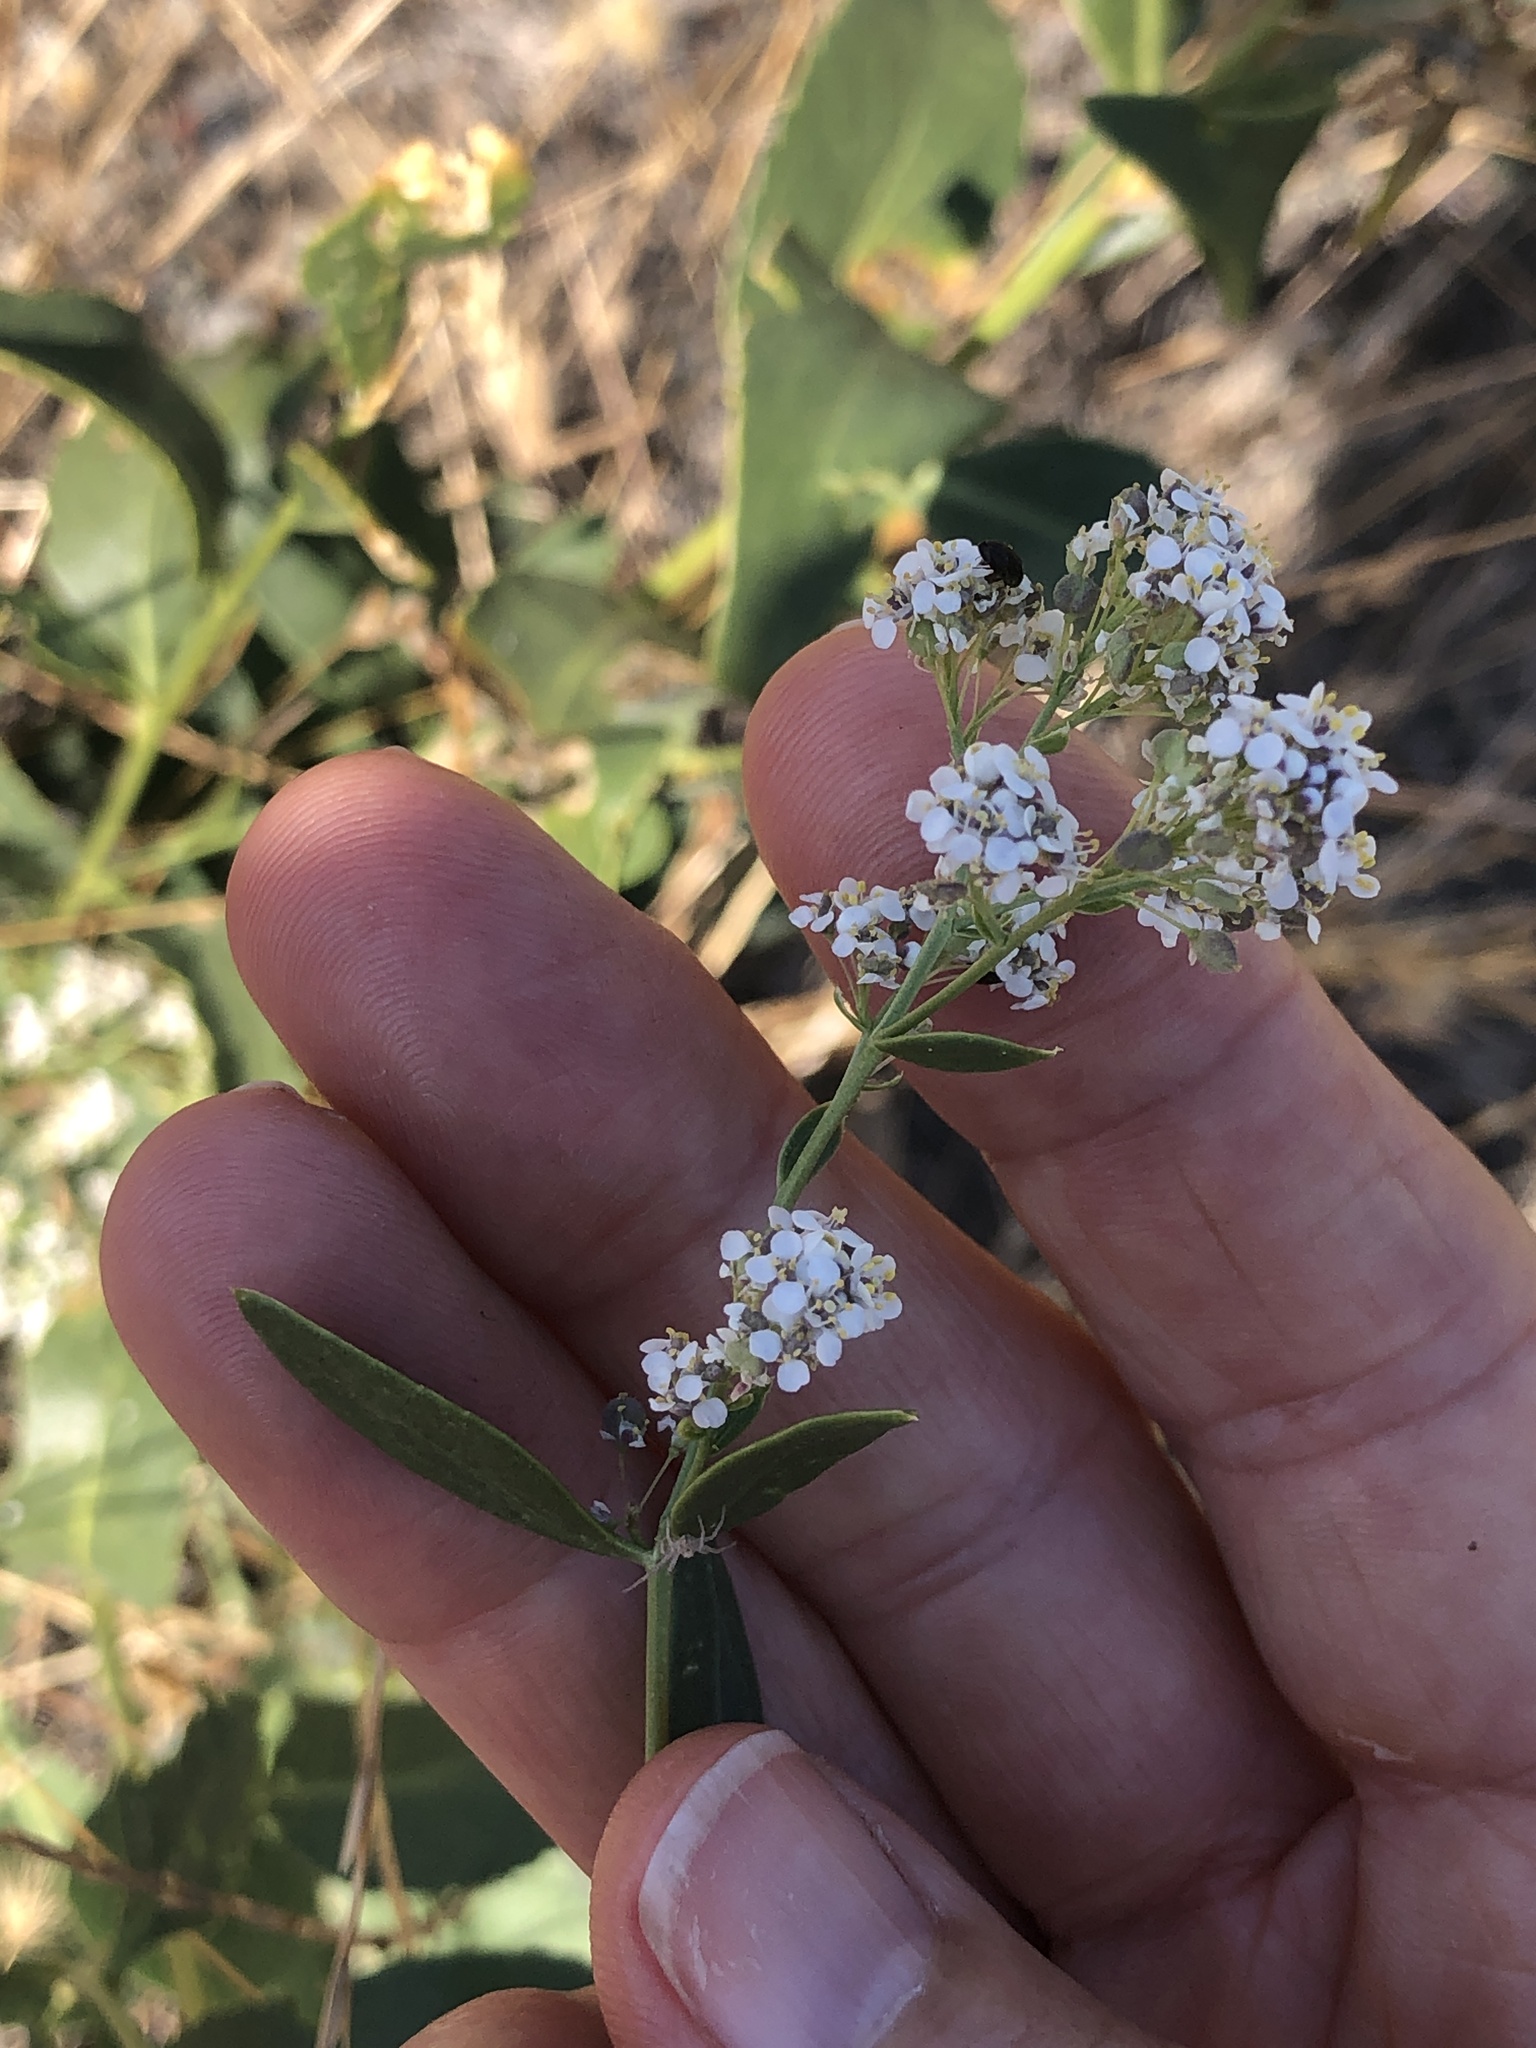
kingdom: Plantae
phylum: Tracheophyta
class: Magnoliopsida
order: Brassicales
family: Brassicaceae
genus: Lepidium
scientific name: Lepidium latifolium
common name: Dittander
